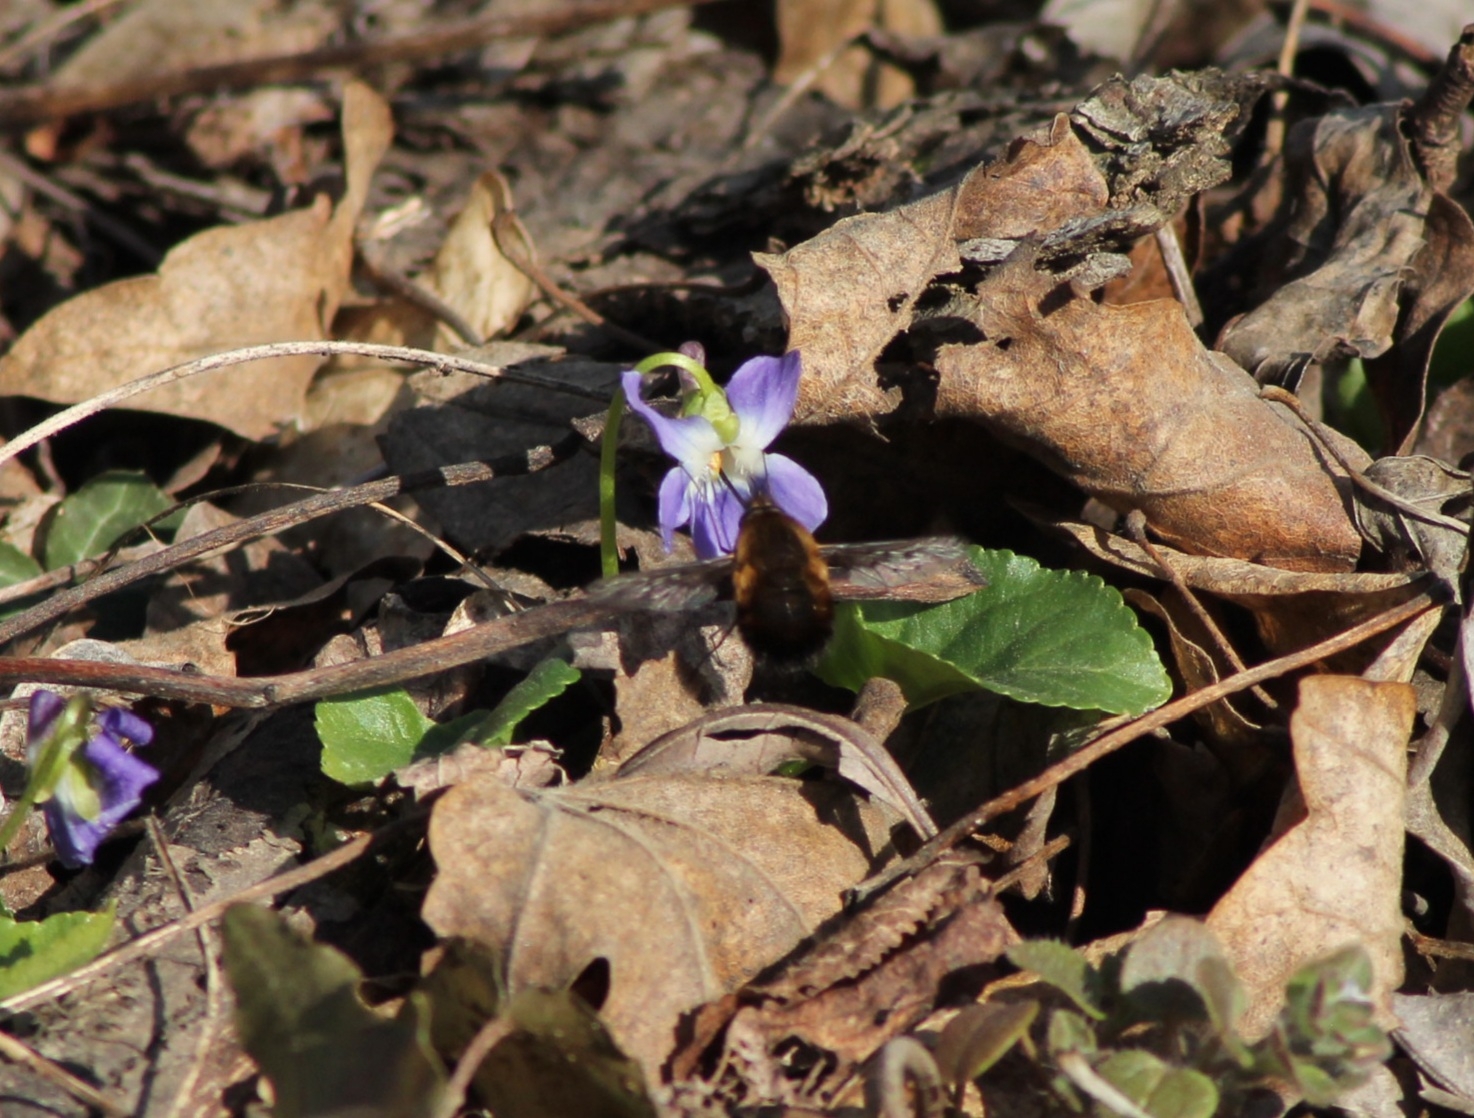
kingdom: Animalia
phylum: Arthropoda
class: Insecta
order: Diptera
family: Bombyliidae
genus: Bombylius
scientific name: Bombylius discolor
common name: Dotted bee-fly
